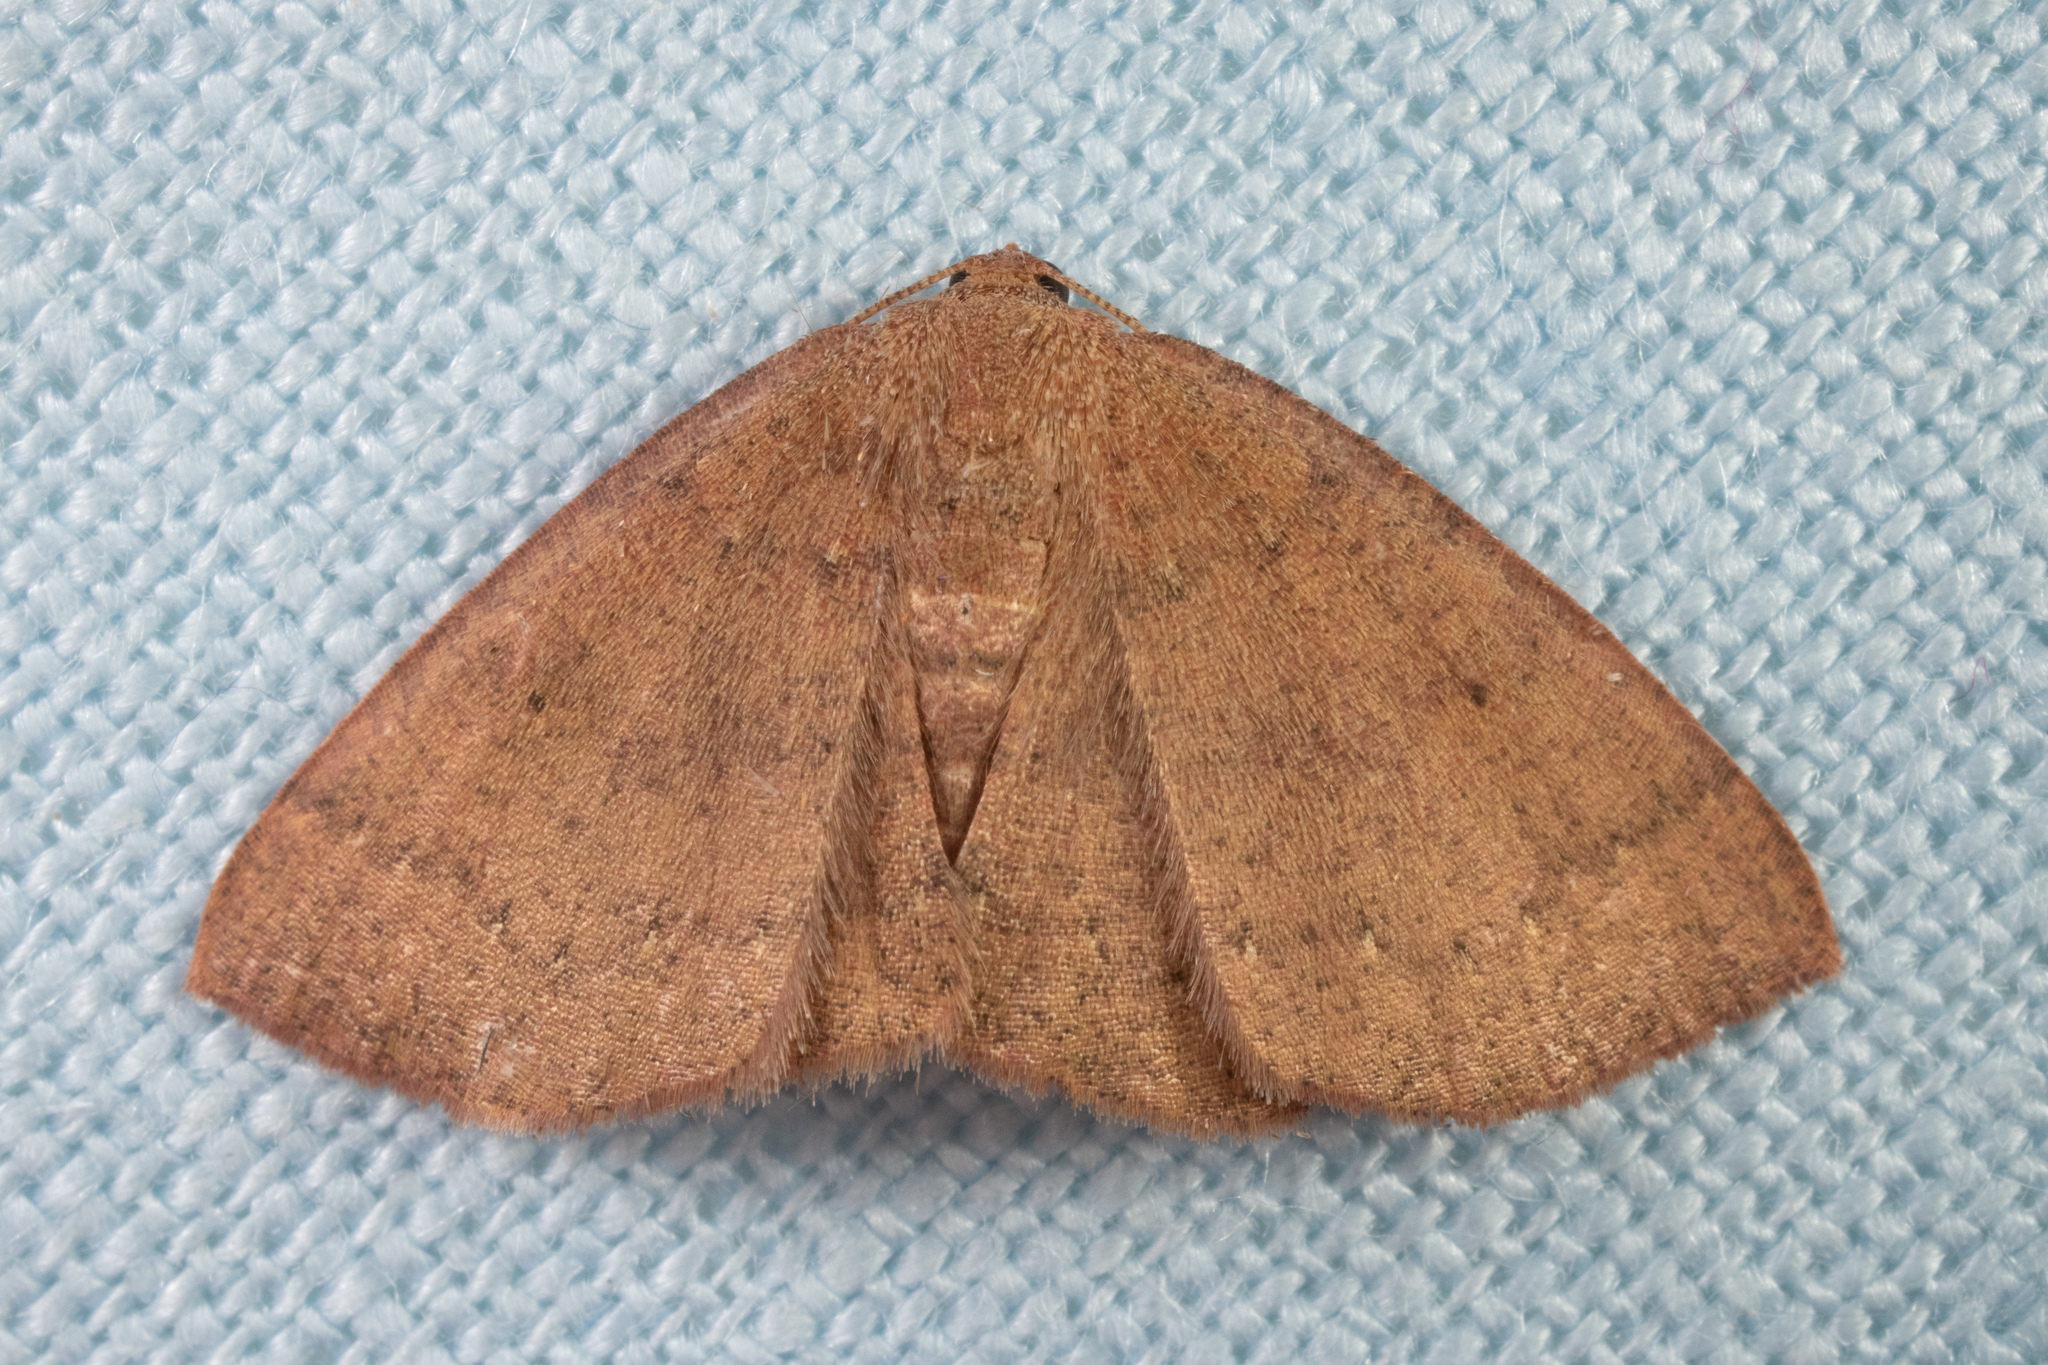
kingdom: Animalia
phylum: Arthropoda
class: Insecta
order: Lepidoptera
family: Geometridae
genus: Ilexia
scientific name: Ilexia intractata
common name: Black-dotted ruddy moth
